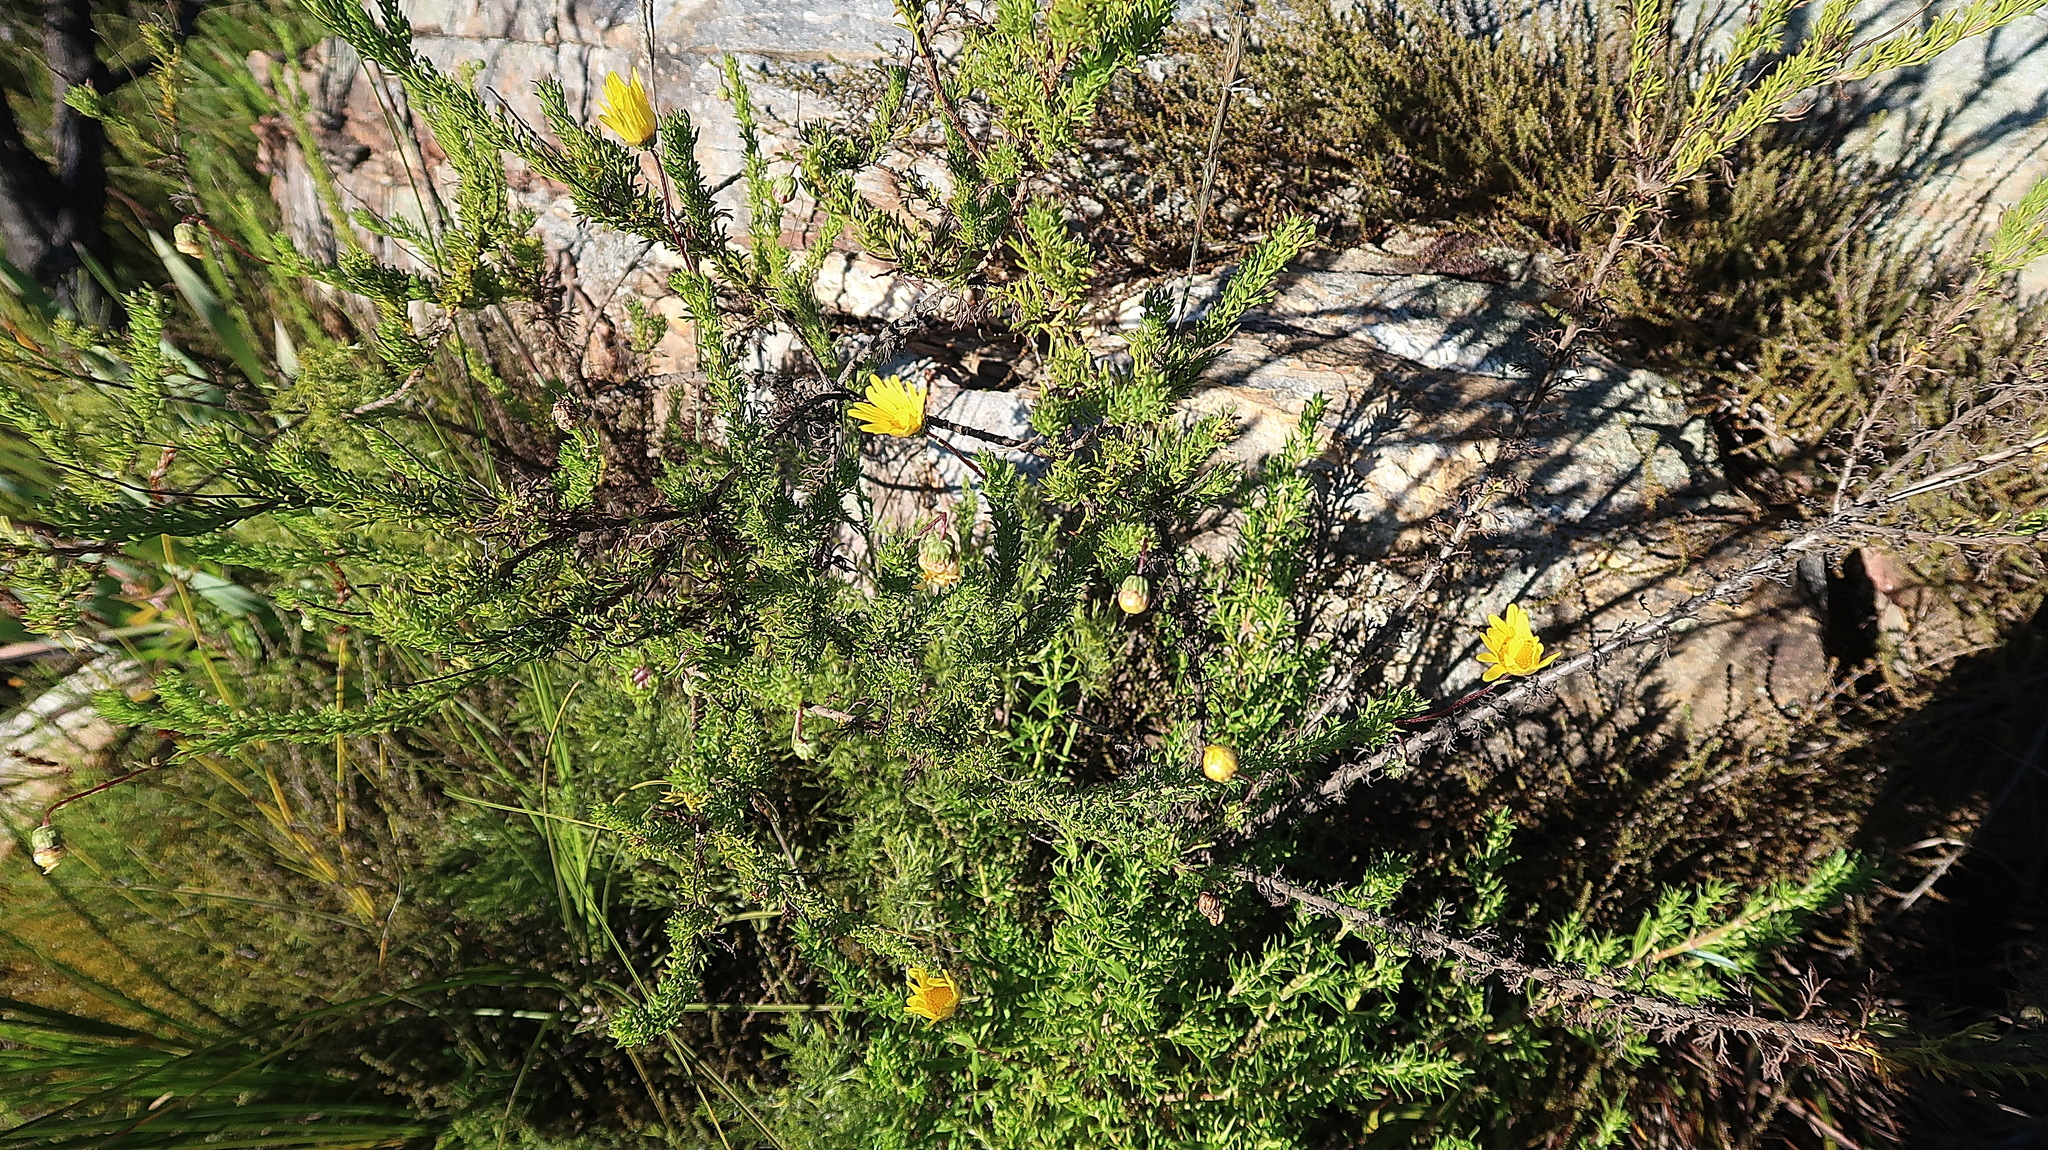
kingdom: Plantae
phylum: Tracheophyta
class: Magnoliopsida
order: Asterales
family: Asteraceae
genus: Ursinia
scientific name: Ursinia anthemoides
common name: Ursinia
